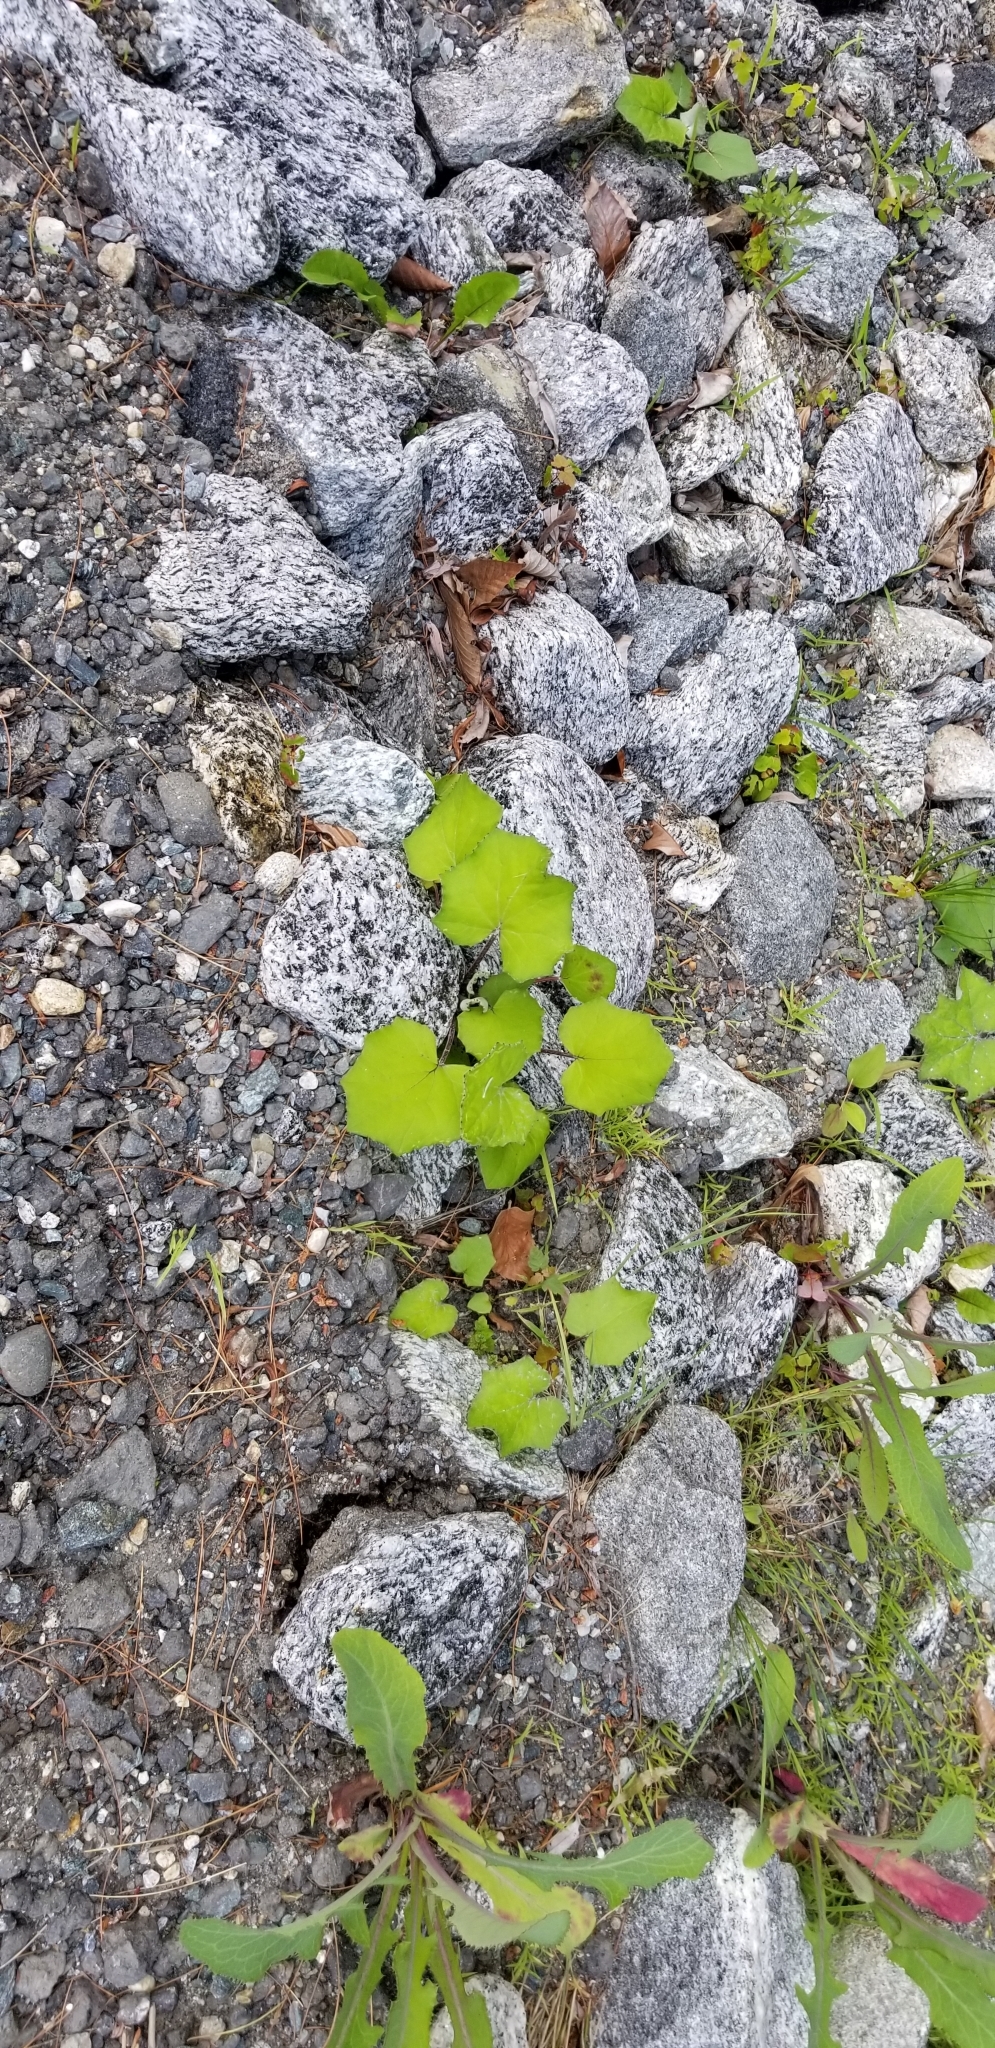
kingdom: Plantae
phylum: Tracheophyta
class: Magnoliopsida
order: Asterales
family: Asteraceae
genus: Tussilago
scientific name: Tussilago farfara
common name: Coltsfoot
